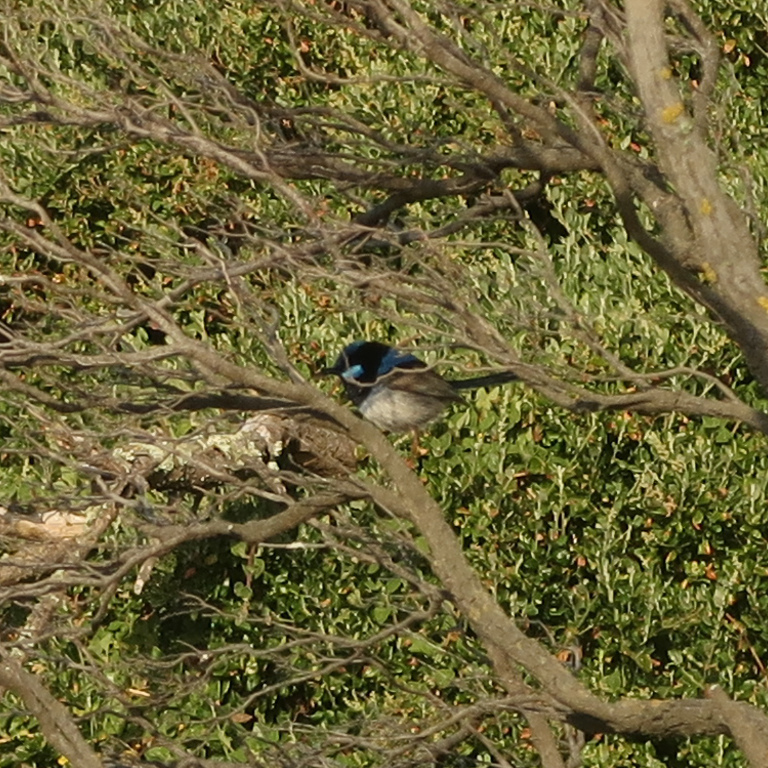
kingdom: Animalia
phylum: Chordata
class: Aves
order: Passeriformes
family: Maluridae
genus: Malurus
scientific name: Malurus cyaneus
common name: Superb fairywren
